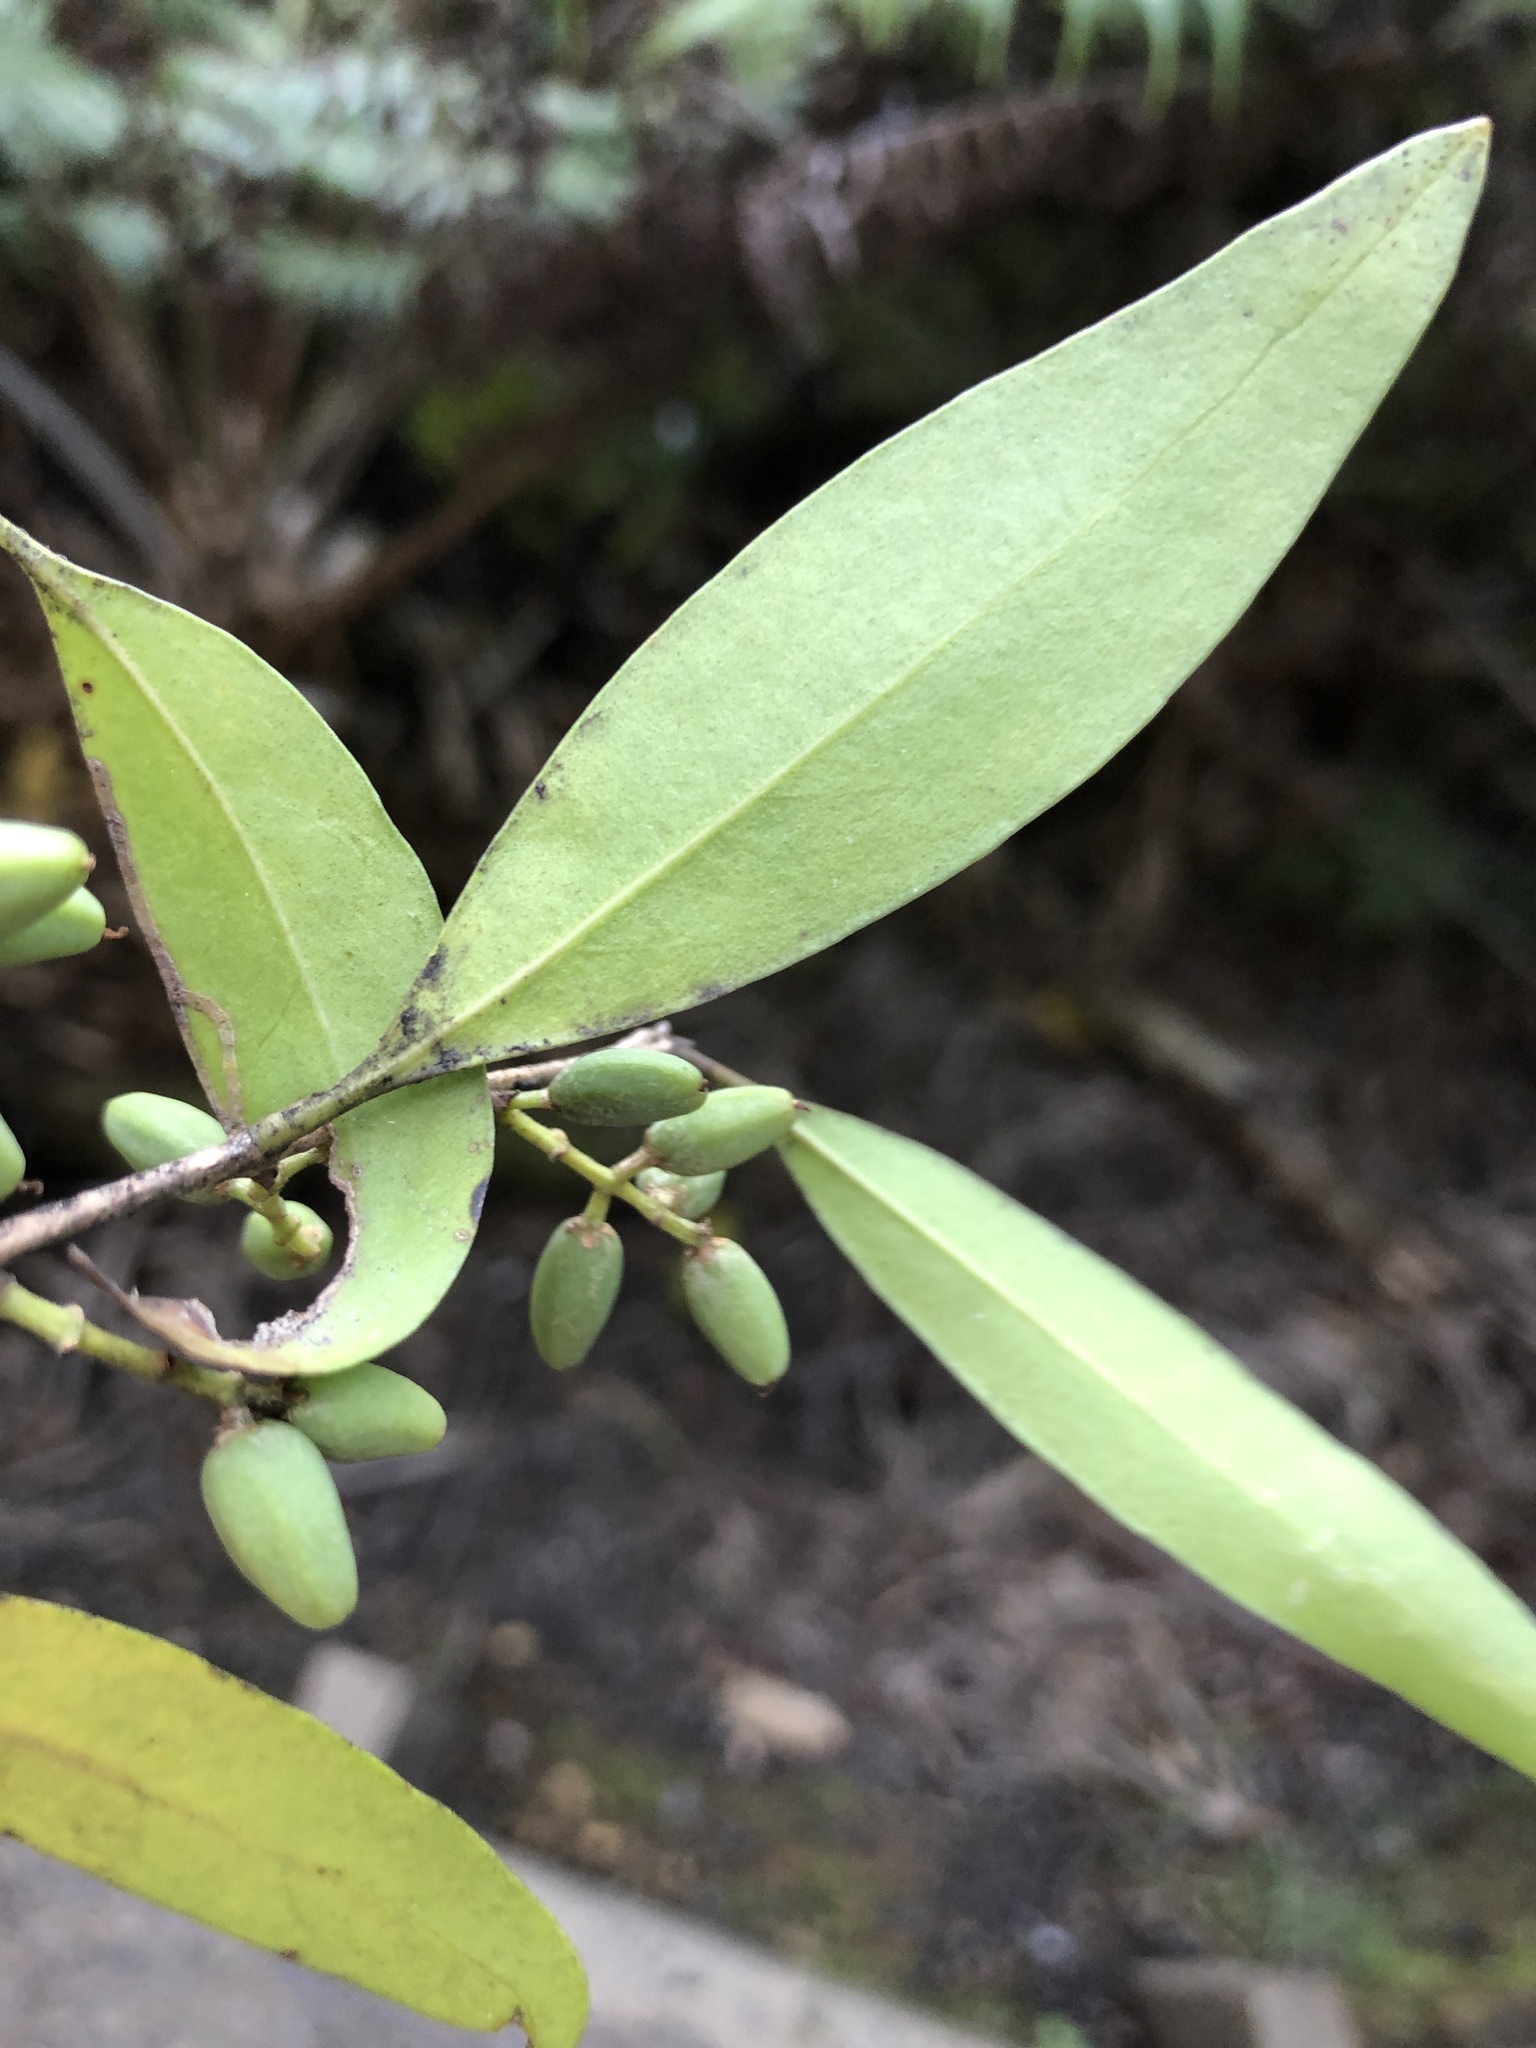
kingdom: Plantae
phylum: Tracheophyta
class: Magnoliopsida
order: Lamiales
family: Oleaceae
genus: Nestegis
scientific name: Nestegis lanceolata
